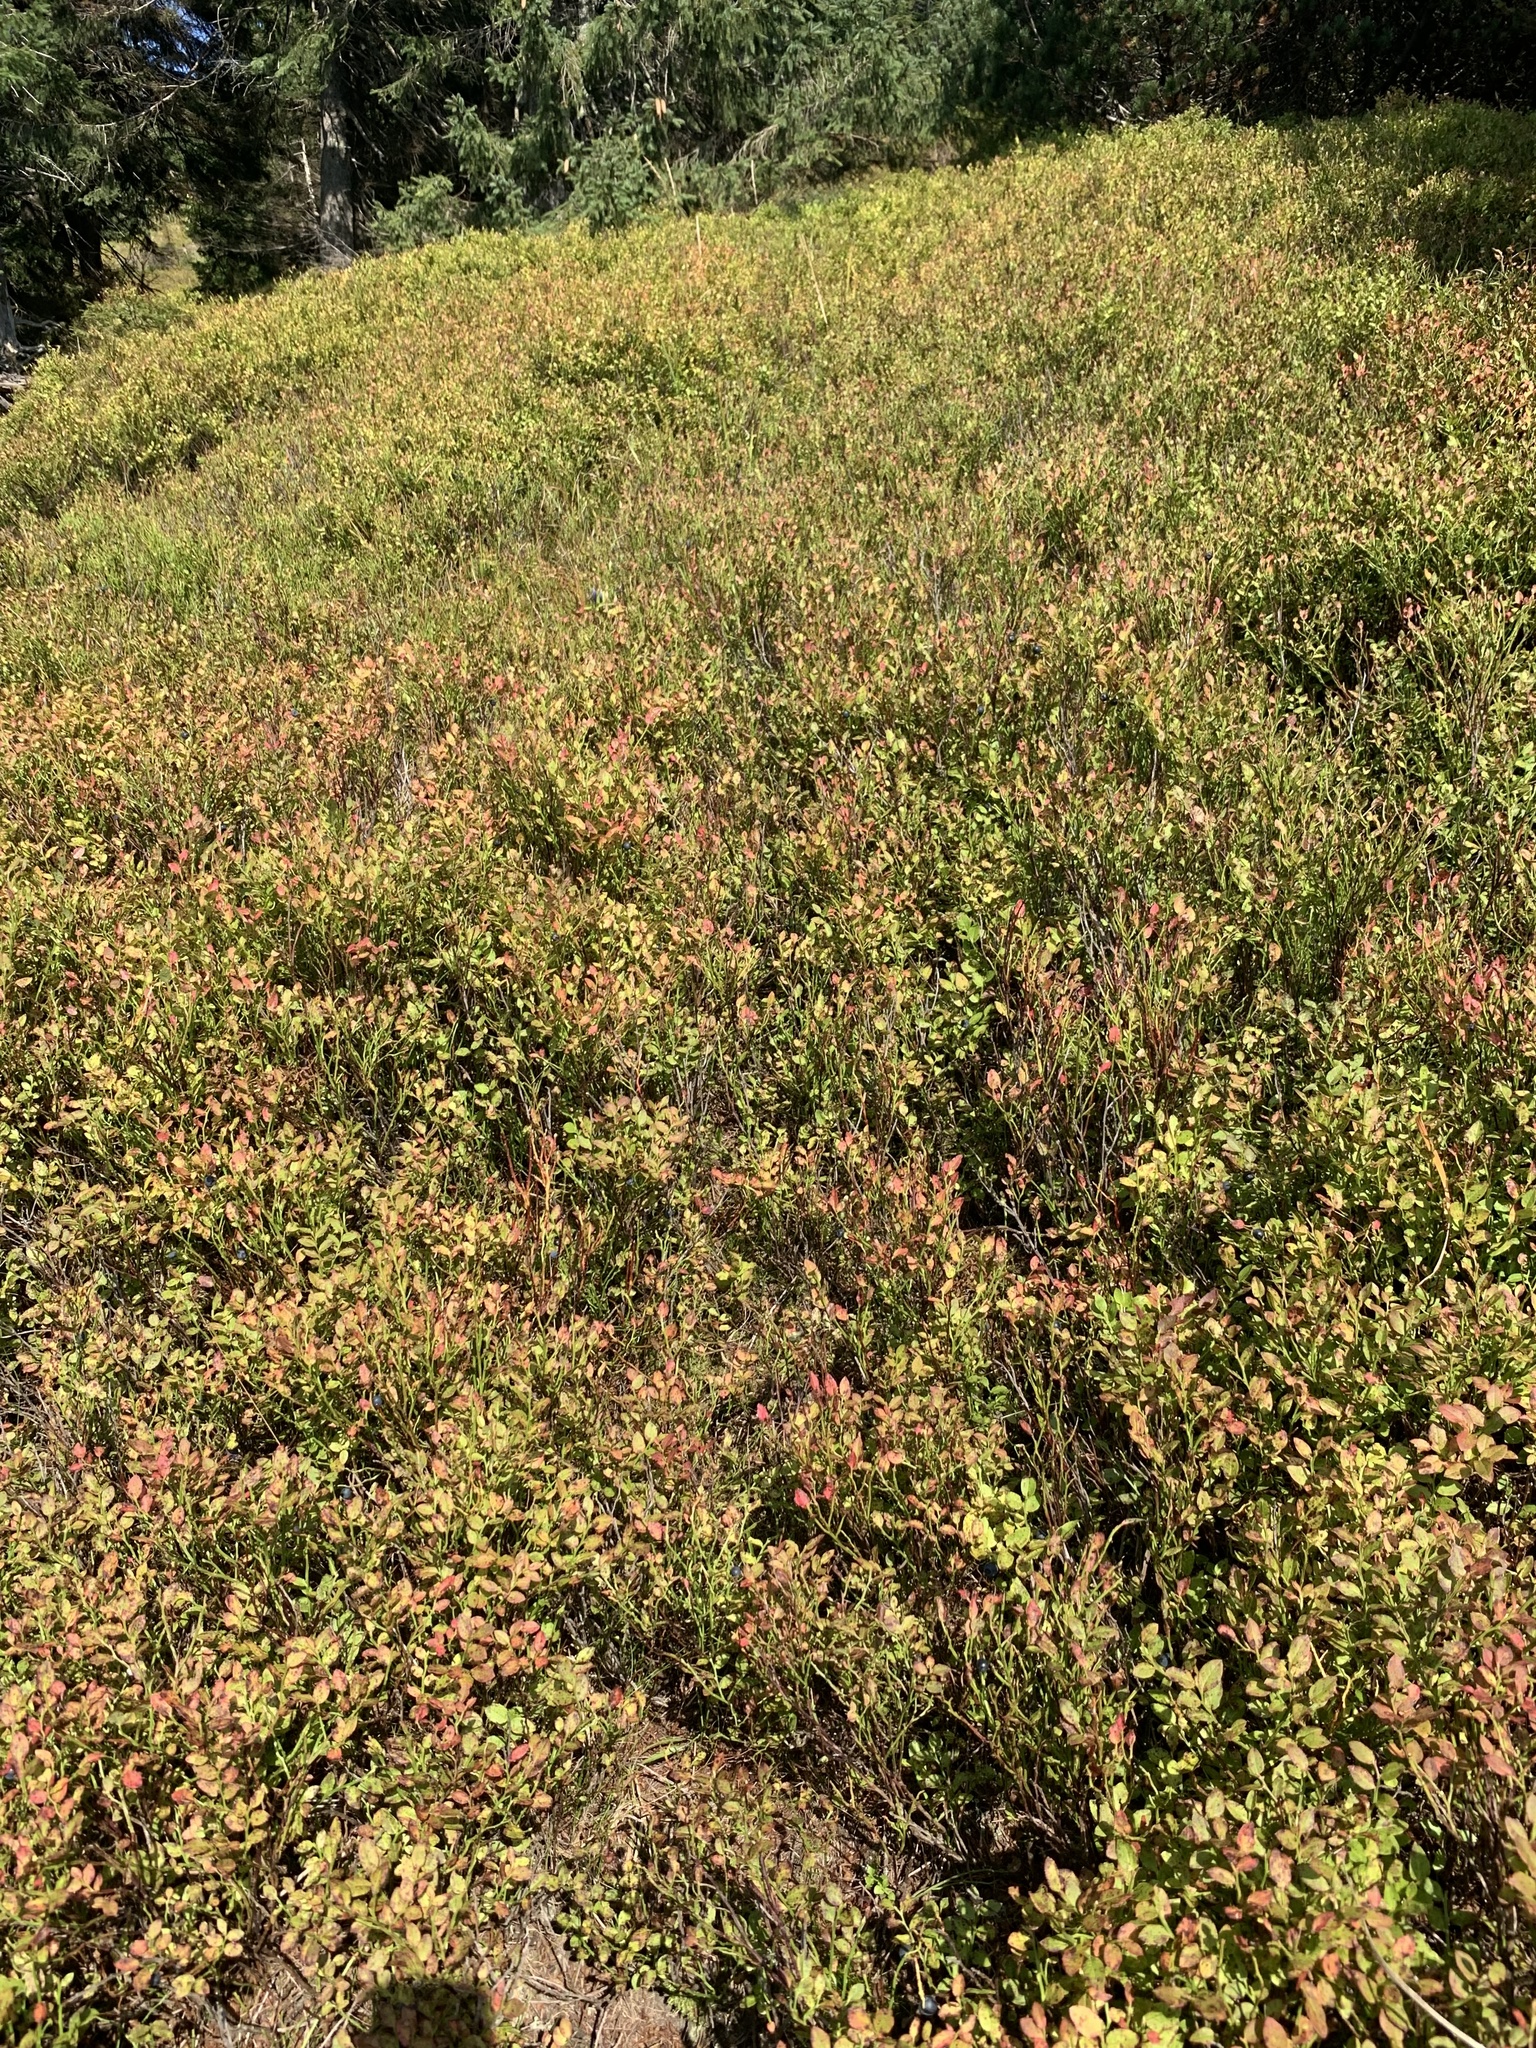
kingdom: Plantae
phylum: Tracheophyta
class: Magnoliopsida
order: Ericales
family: Ericaceae
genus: Vaccinium
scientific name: Vaccinium myrtillus
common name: Bilberry
